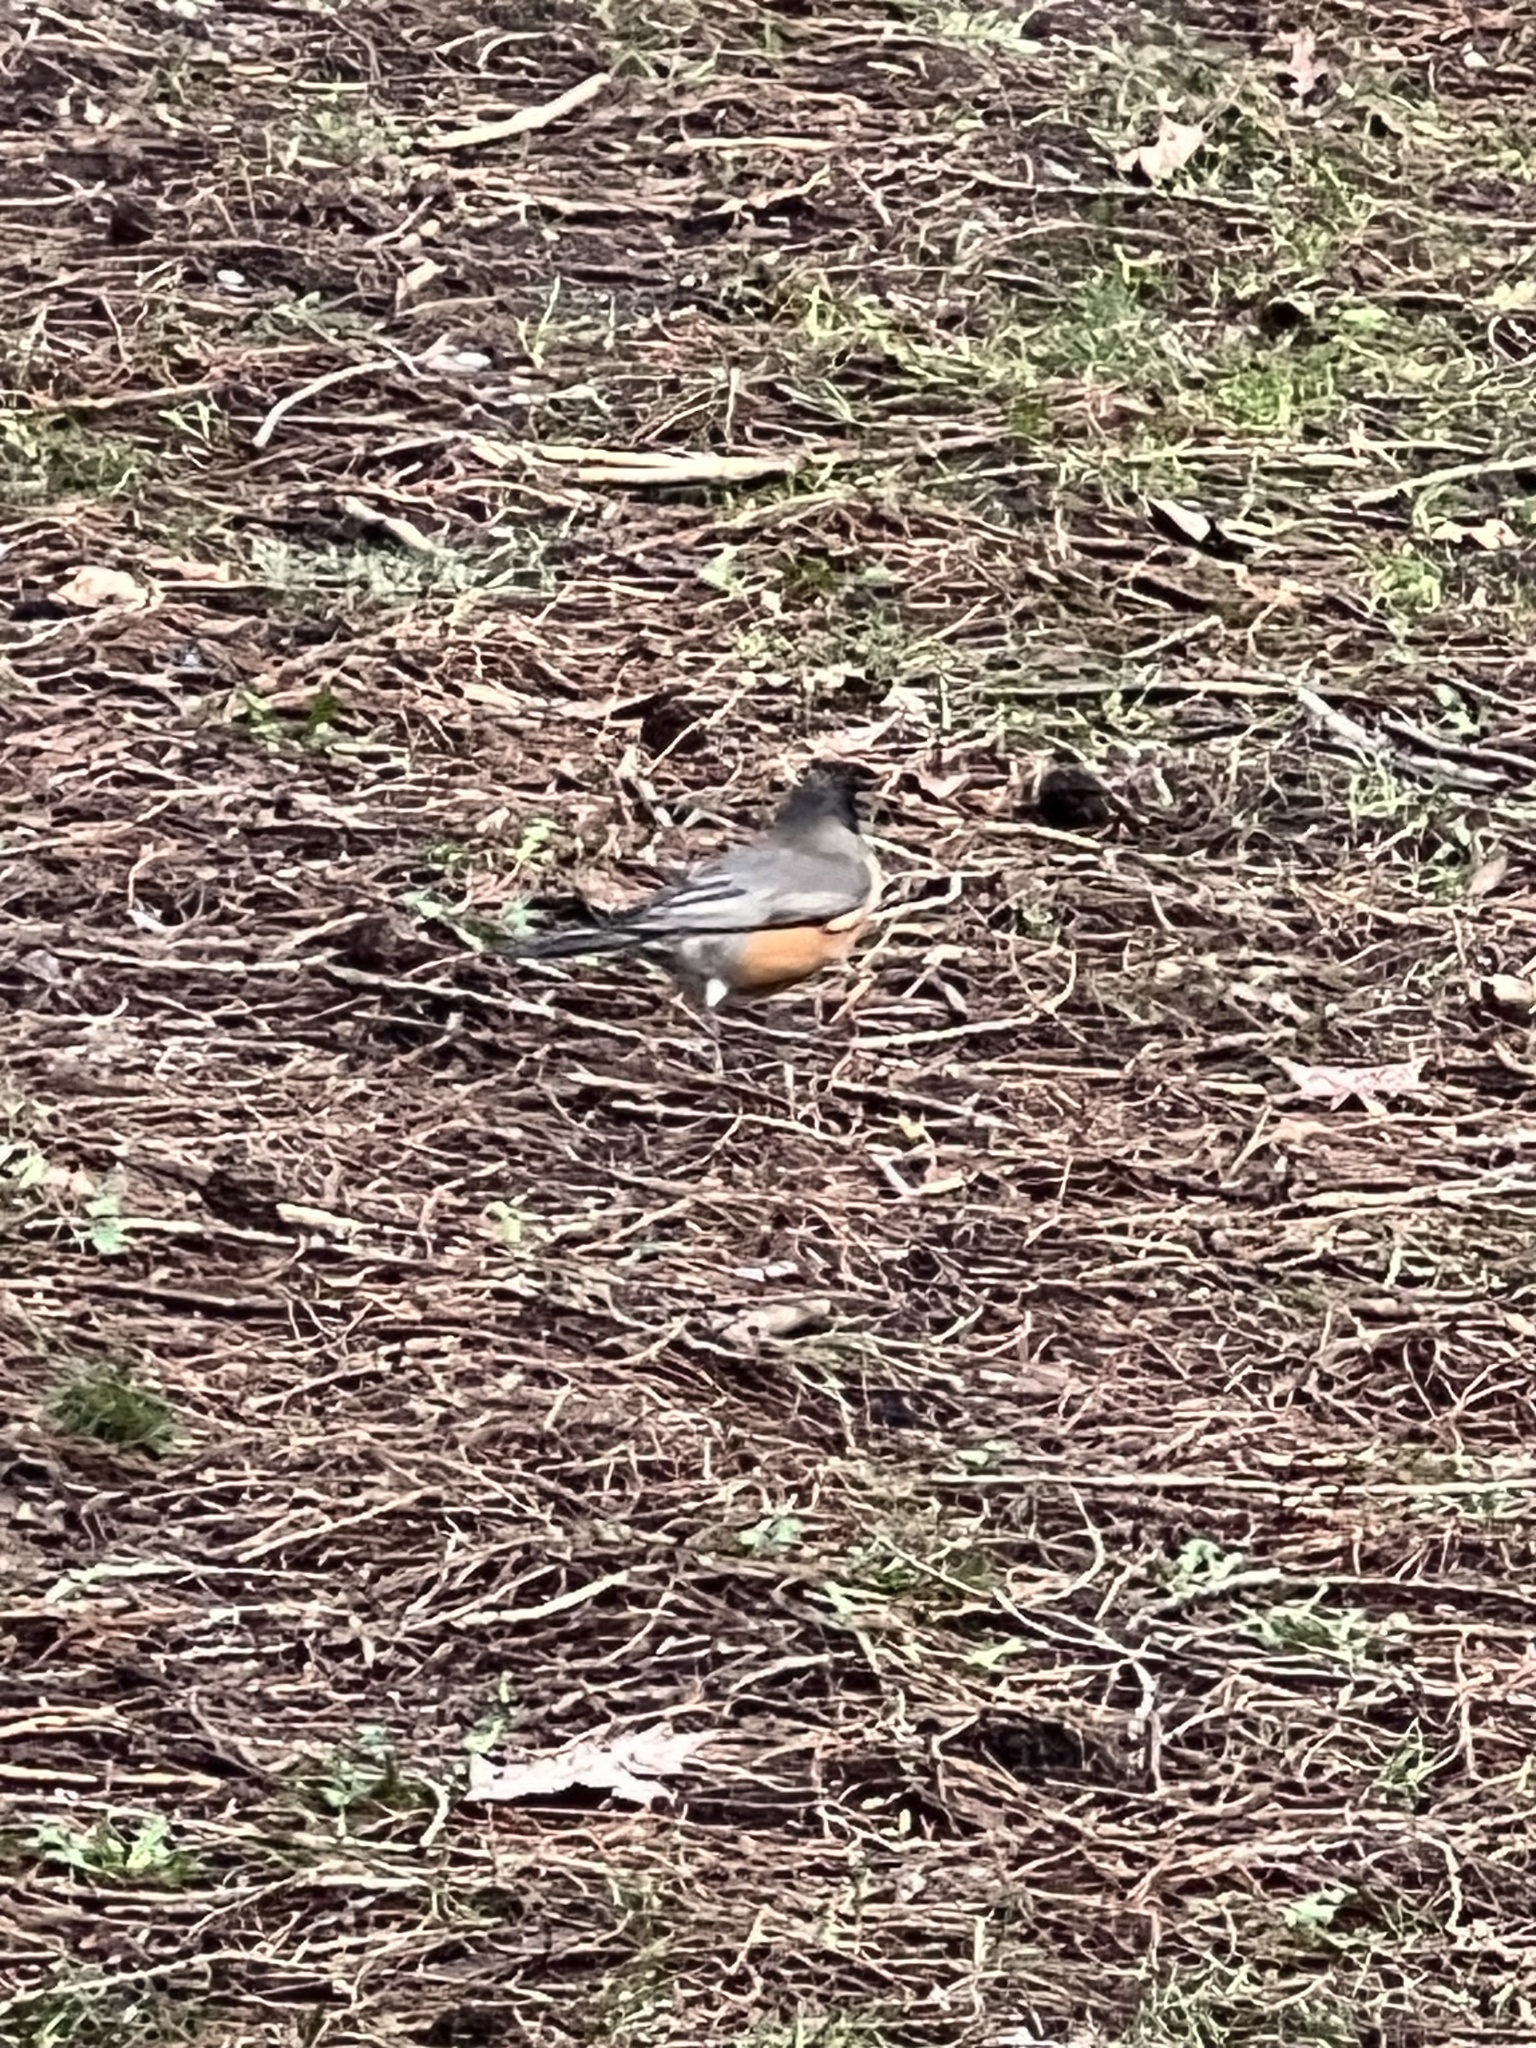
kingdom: Animalia
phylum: Chordata
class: Aves
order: Passeriformes
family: Turdidae
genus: Turdus
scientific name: Turdus migratorius
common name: American robin
